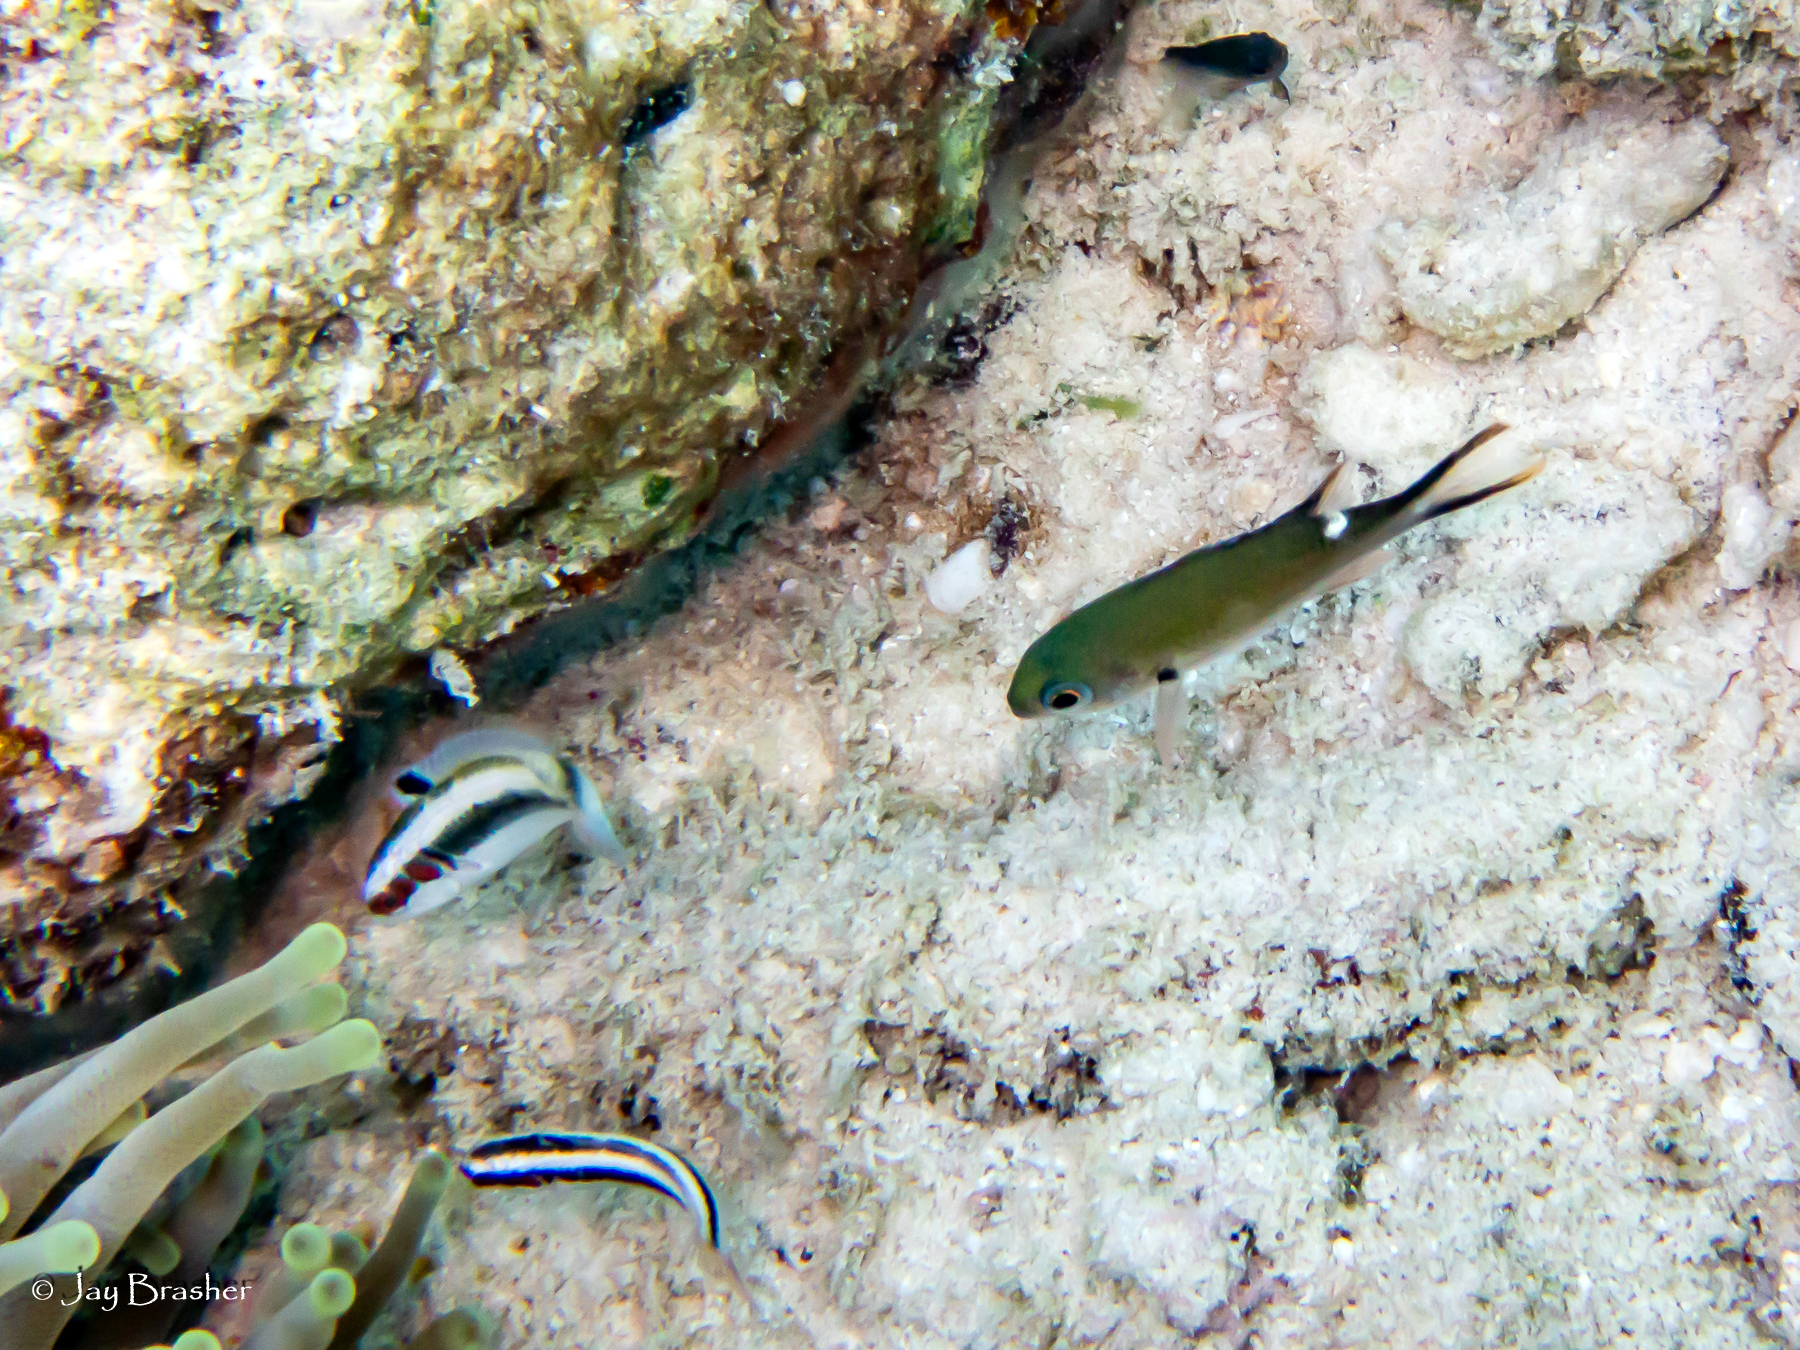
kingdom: Animalia
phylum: Chordata
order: Perciformes
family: Labridae
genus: Thalassoma
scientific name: Thalassoma bifasciatum
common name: Bluehead wrasse
